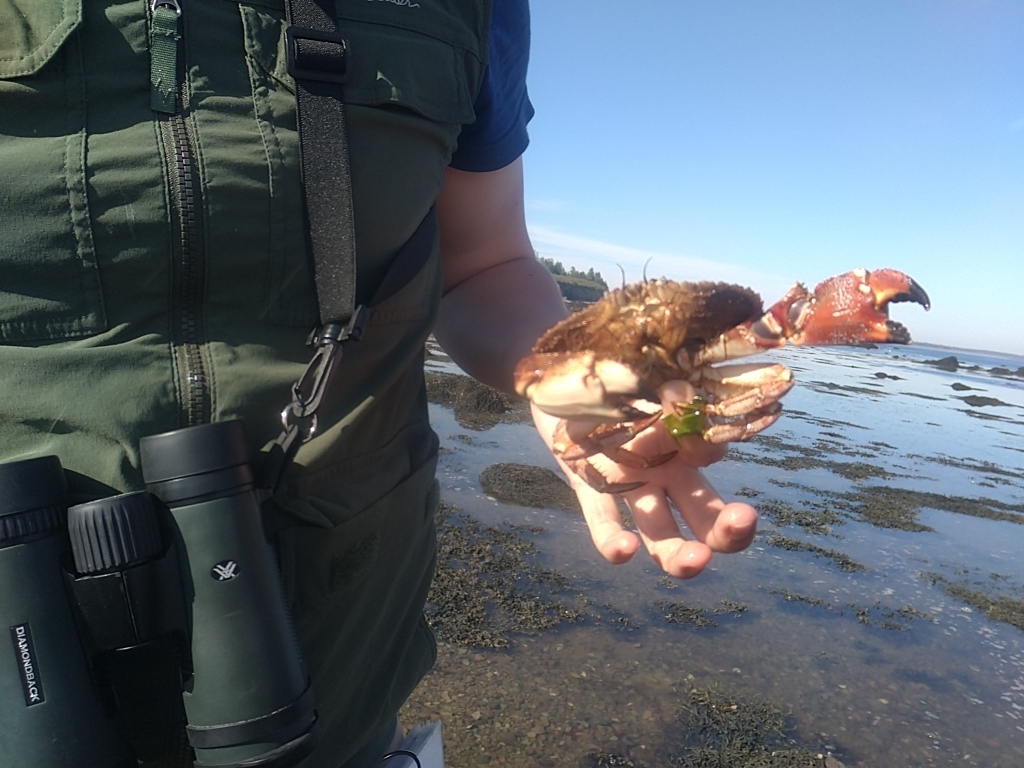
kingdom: Animalia
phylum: Arthropoda
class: Malacostraca
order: Decapoda
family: Cancridae
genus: Cancer
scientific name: Cancer borealis
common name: Jonah crab
